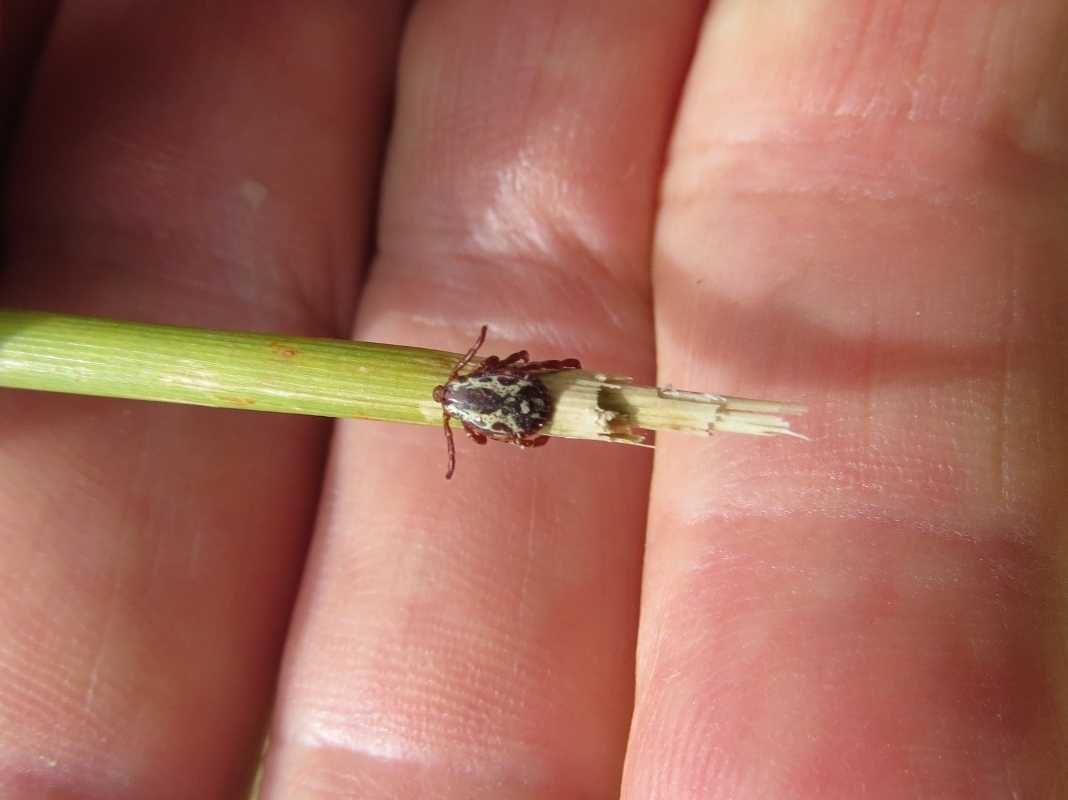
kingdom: Animalia
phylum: Arthropoda
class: Arachnida
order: Ixodida
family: Ixodidae
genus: Dermacentor
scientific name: Dermacentor variabilis
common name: American dog tick
